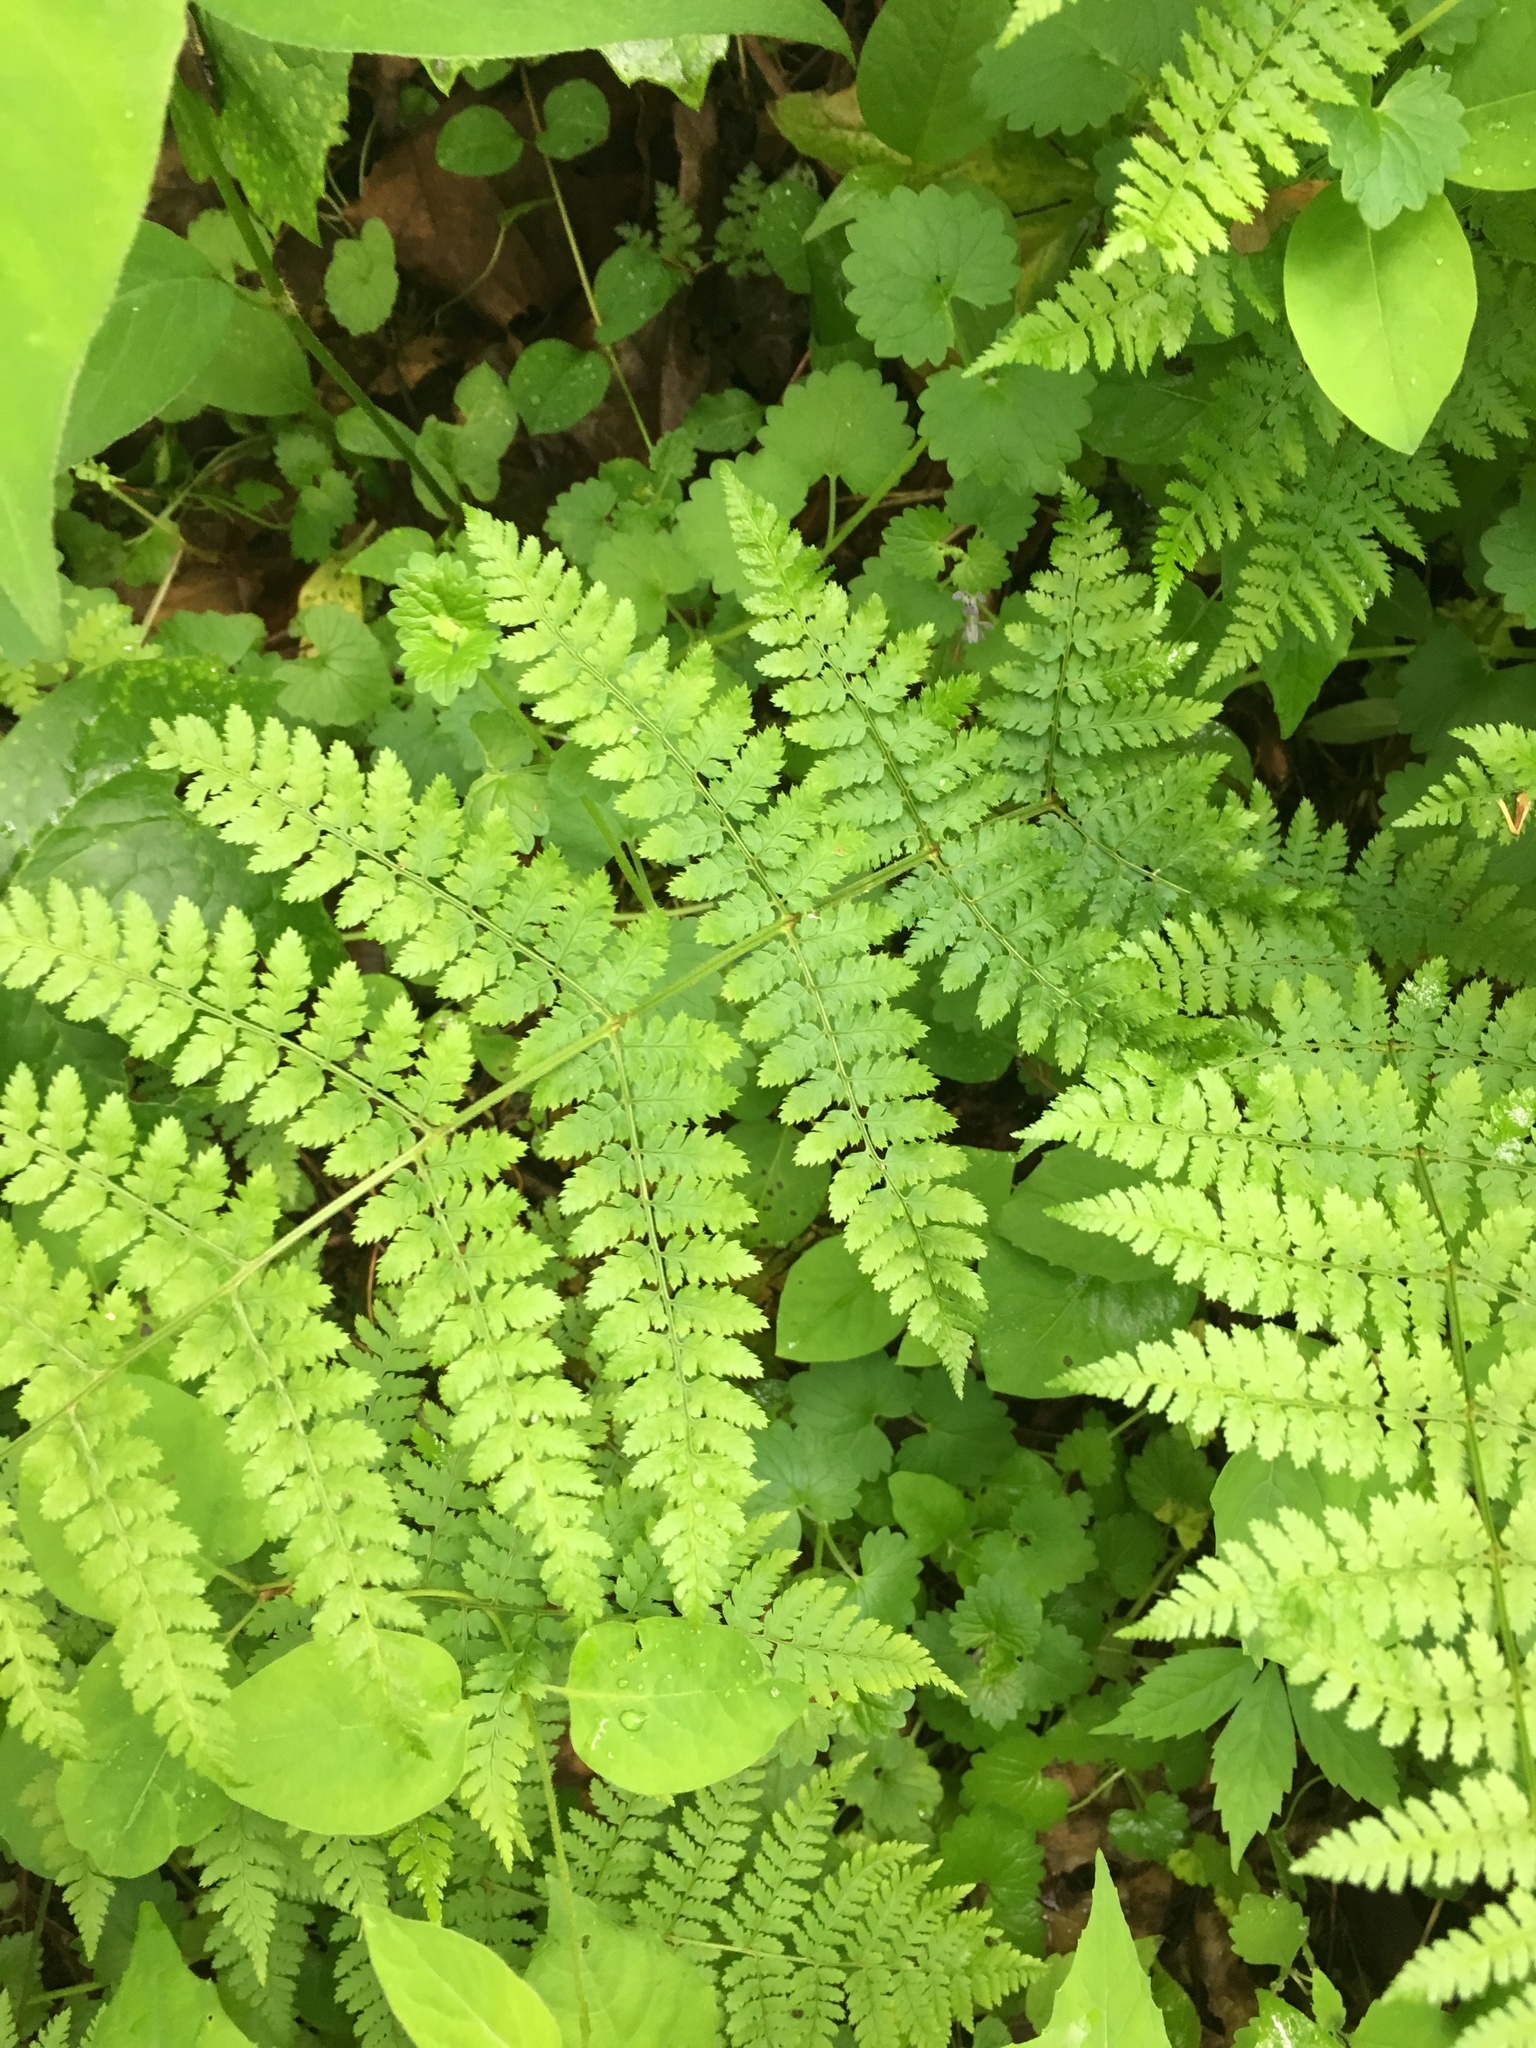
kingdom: Plantae
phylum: Tracheophyta
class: Polypodiopsida
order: Polypodiales
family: Dryopteridaceae
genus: Dryopteris
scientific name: Dryopteris intermedia
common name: Evergreen wood fern
